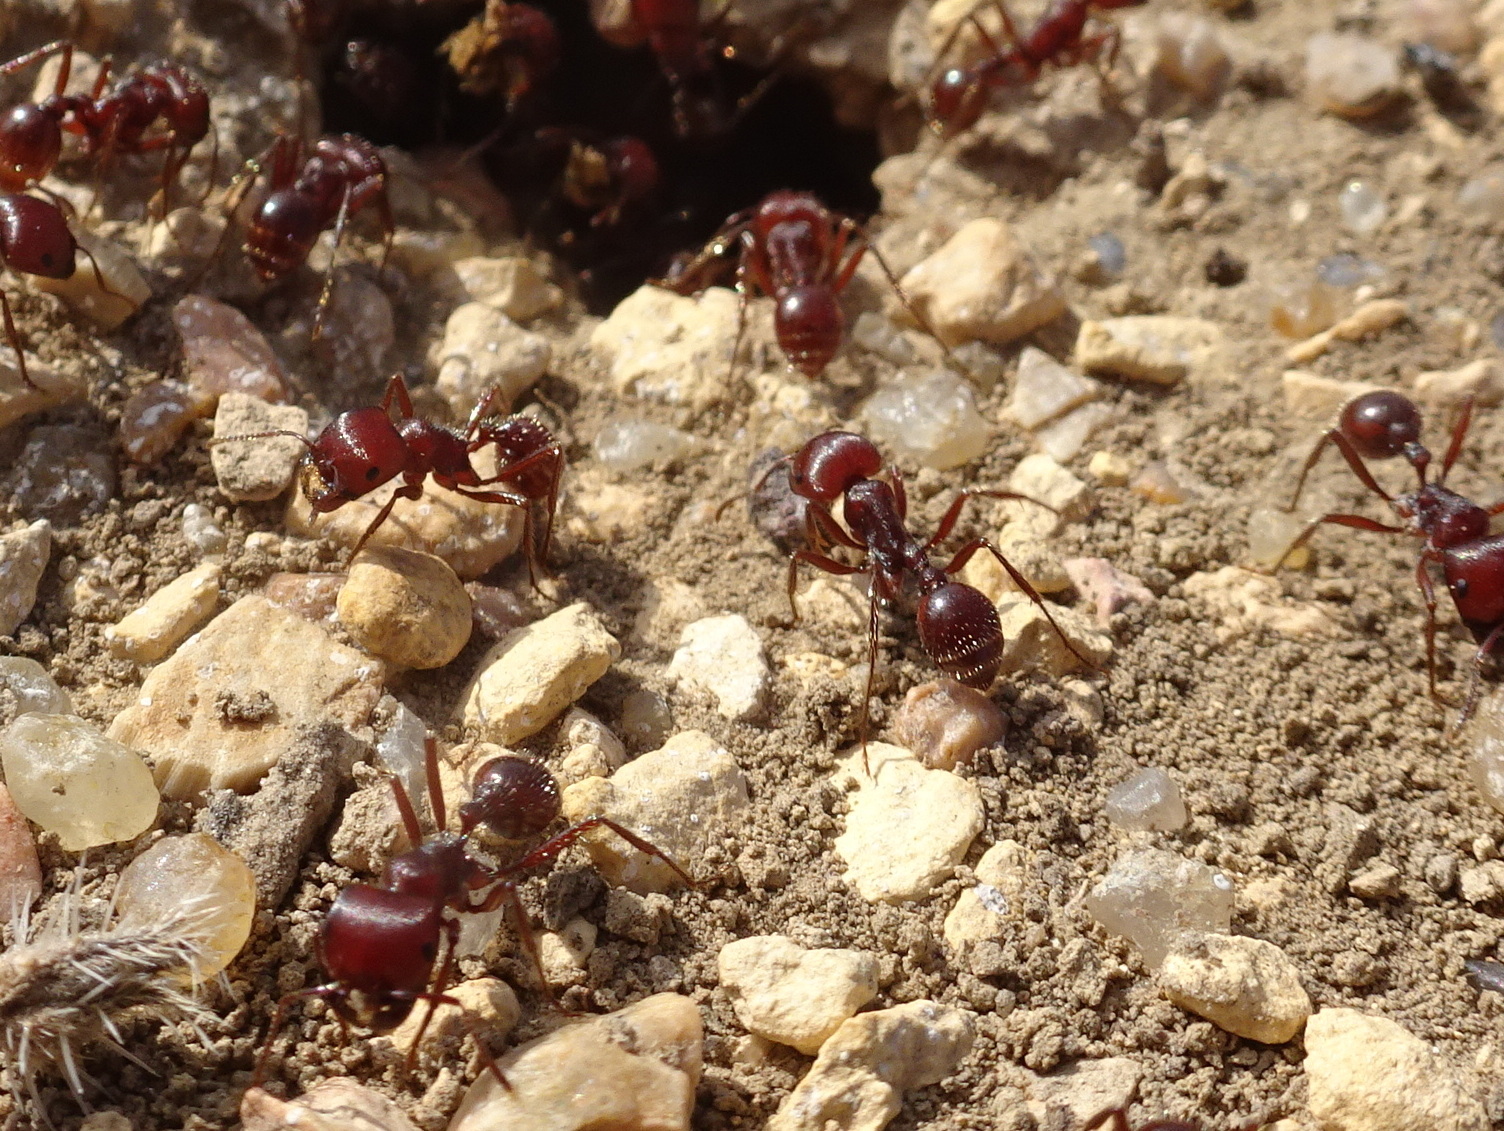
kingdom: Animalia
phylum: Arthropoda
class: Insecta
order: Hymenoptera
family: Formicidae
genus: Pogonomyrmex
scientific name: Pogonomyrmex barbatus
